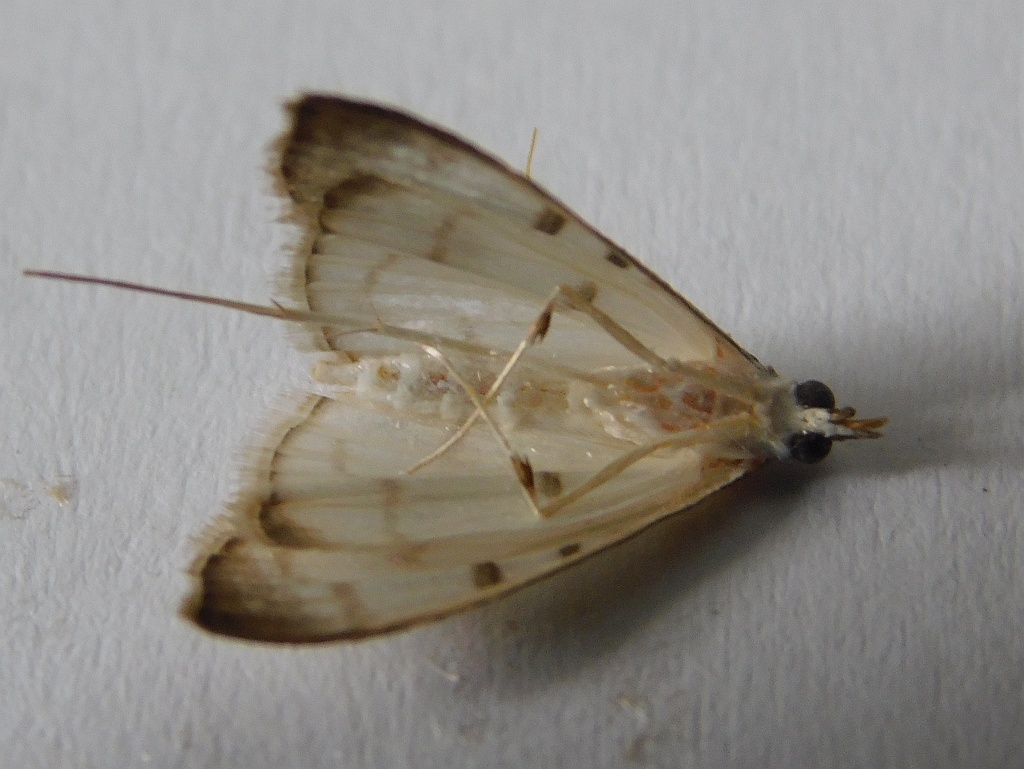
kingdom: Animalia
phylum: Arthropoda
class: Insecta
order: Lepidoptera
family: Crambidae
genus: Antigastra
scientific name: Antigastra morysalis
